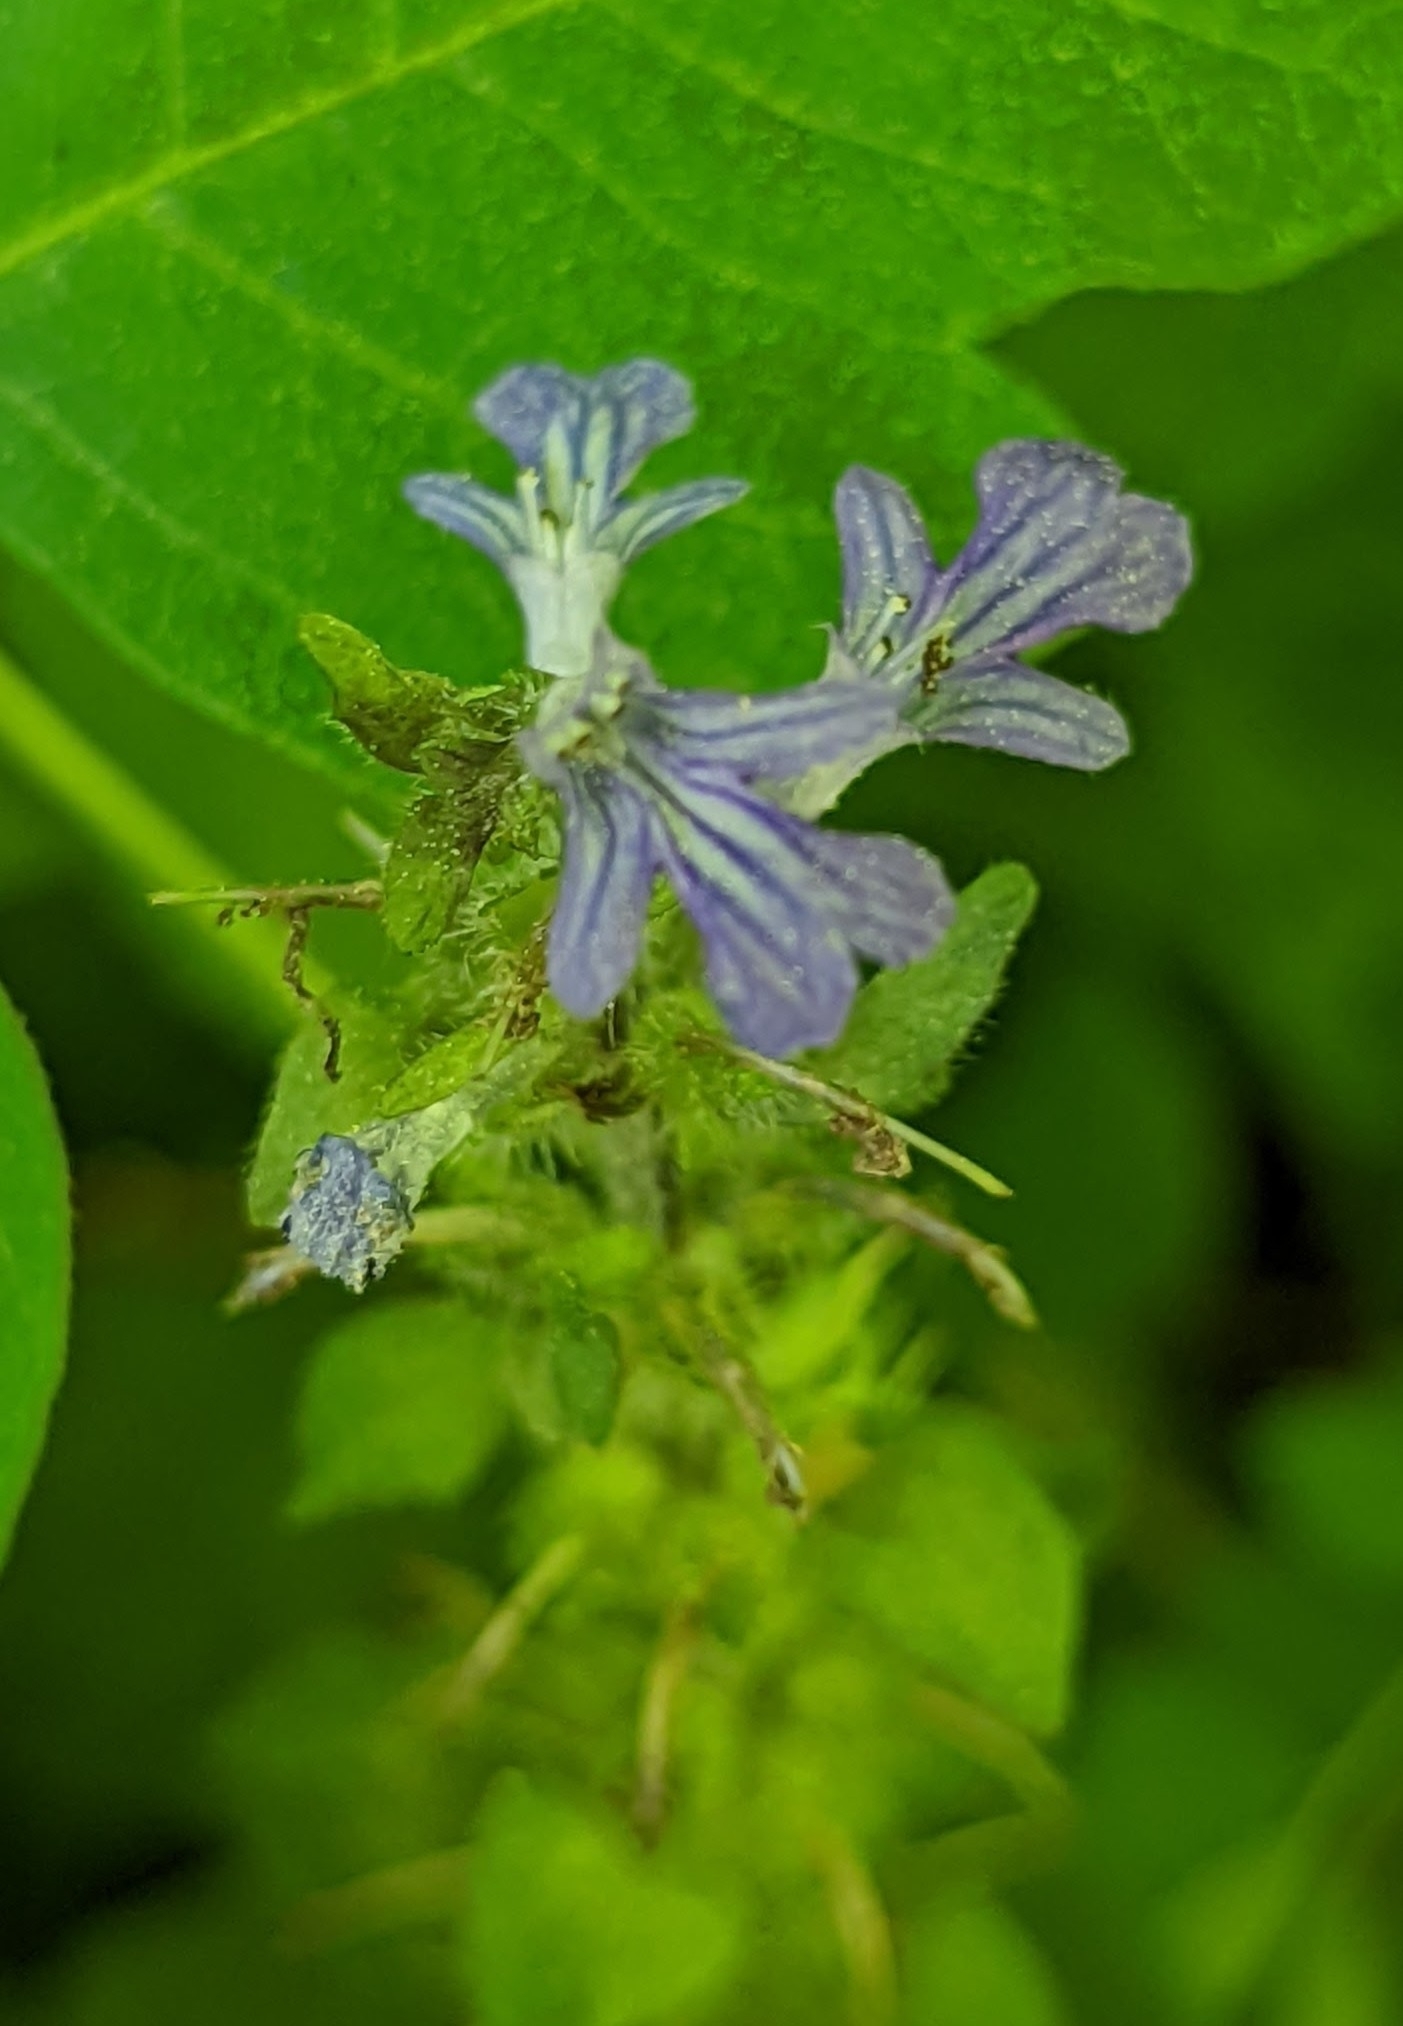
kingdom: Plantae
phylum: Tracheophyta
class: Magnoliopsida
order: Lamiales
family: Lamiaceae
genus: Ajuga
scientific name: Ajuga reptans
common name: Bugle
